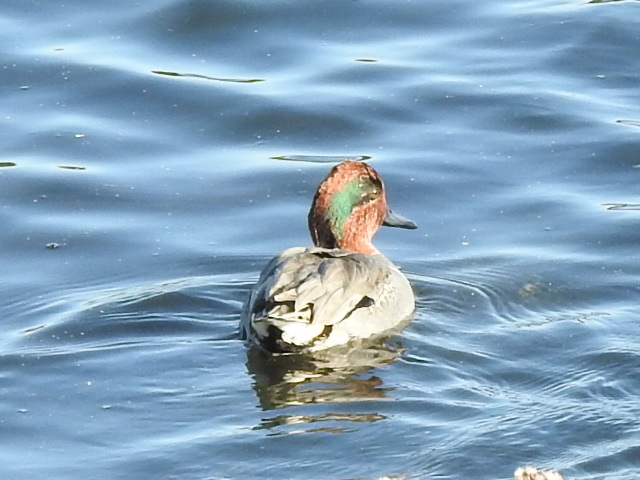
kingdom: Animalia
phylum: Chordata
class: Aves
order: Anseriformes
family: Anatidae
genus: Anas
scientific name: Anas crecca
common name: Eurasian teal
